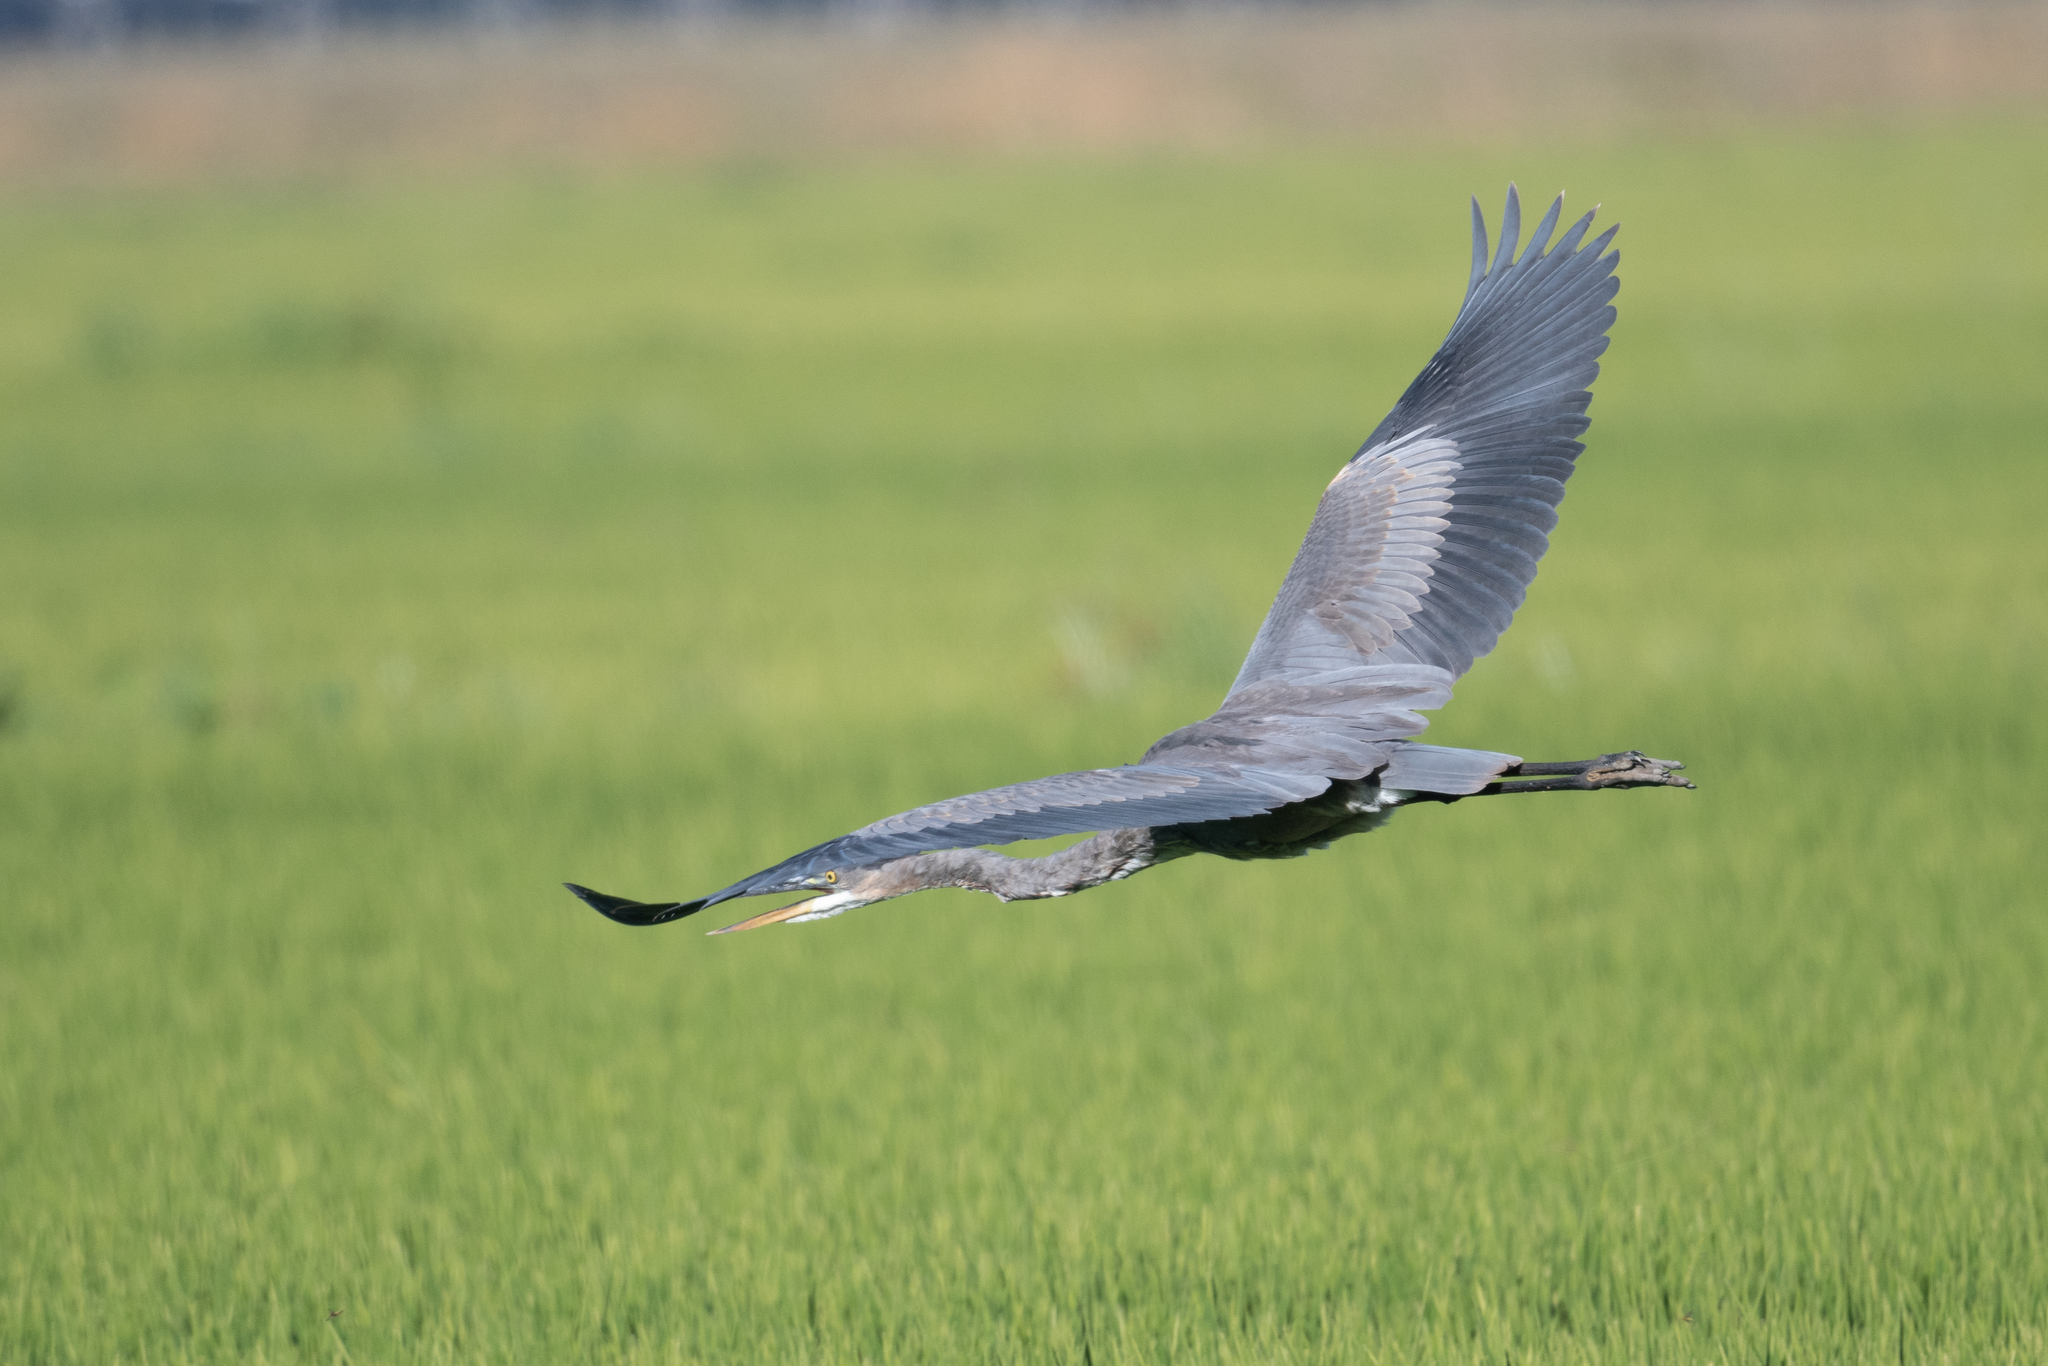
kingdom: Animalia
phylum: Chordata
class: Aves
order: Pelecaniformes
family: Ardeidae
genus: Ardea
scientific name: Ardea herodias
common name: Great blue heron
